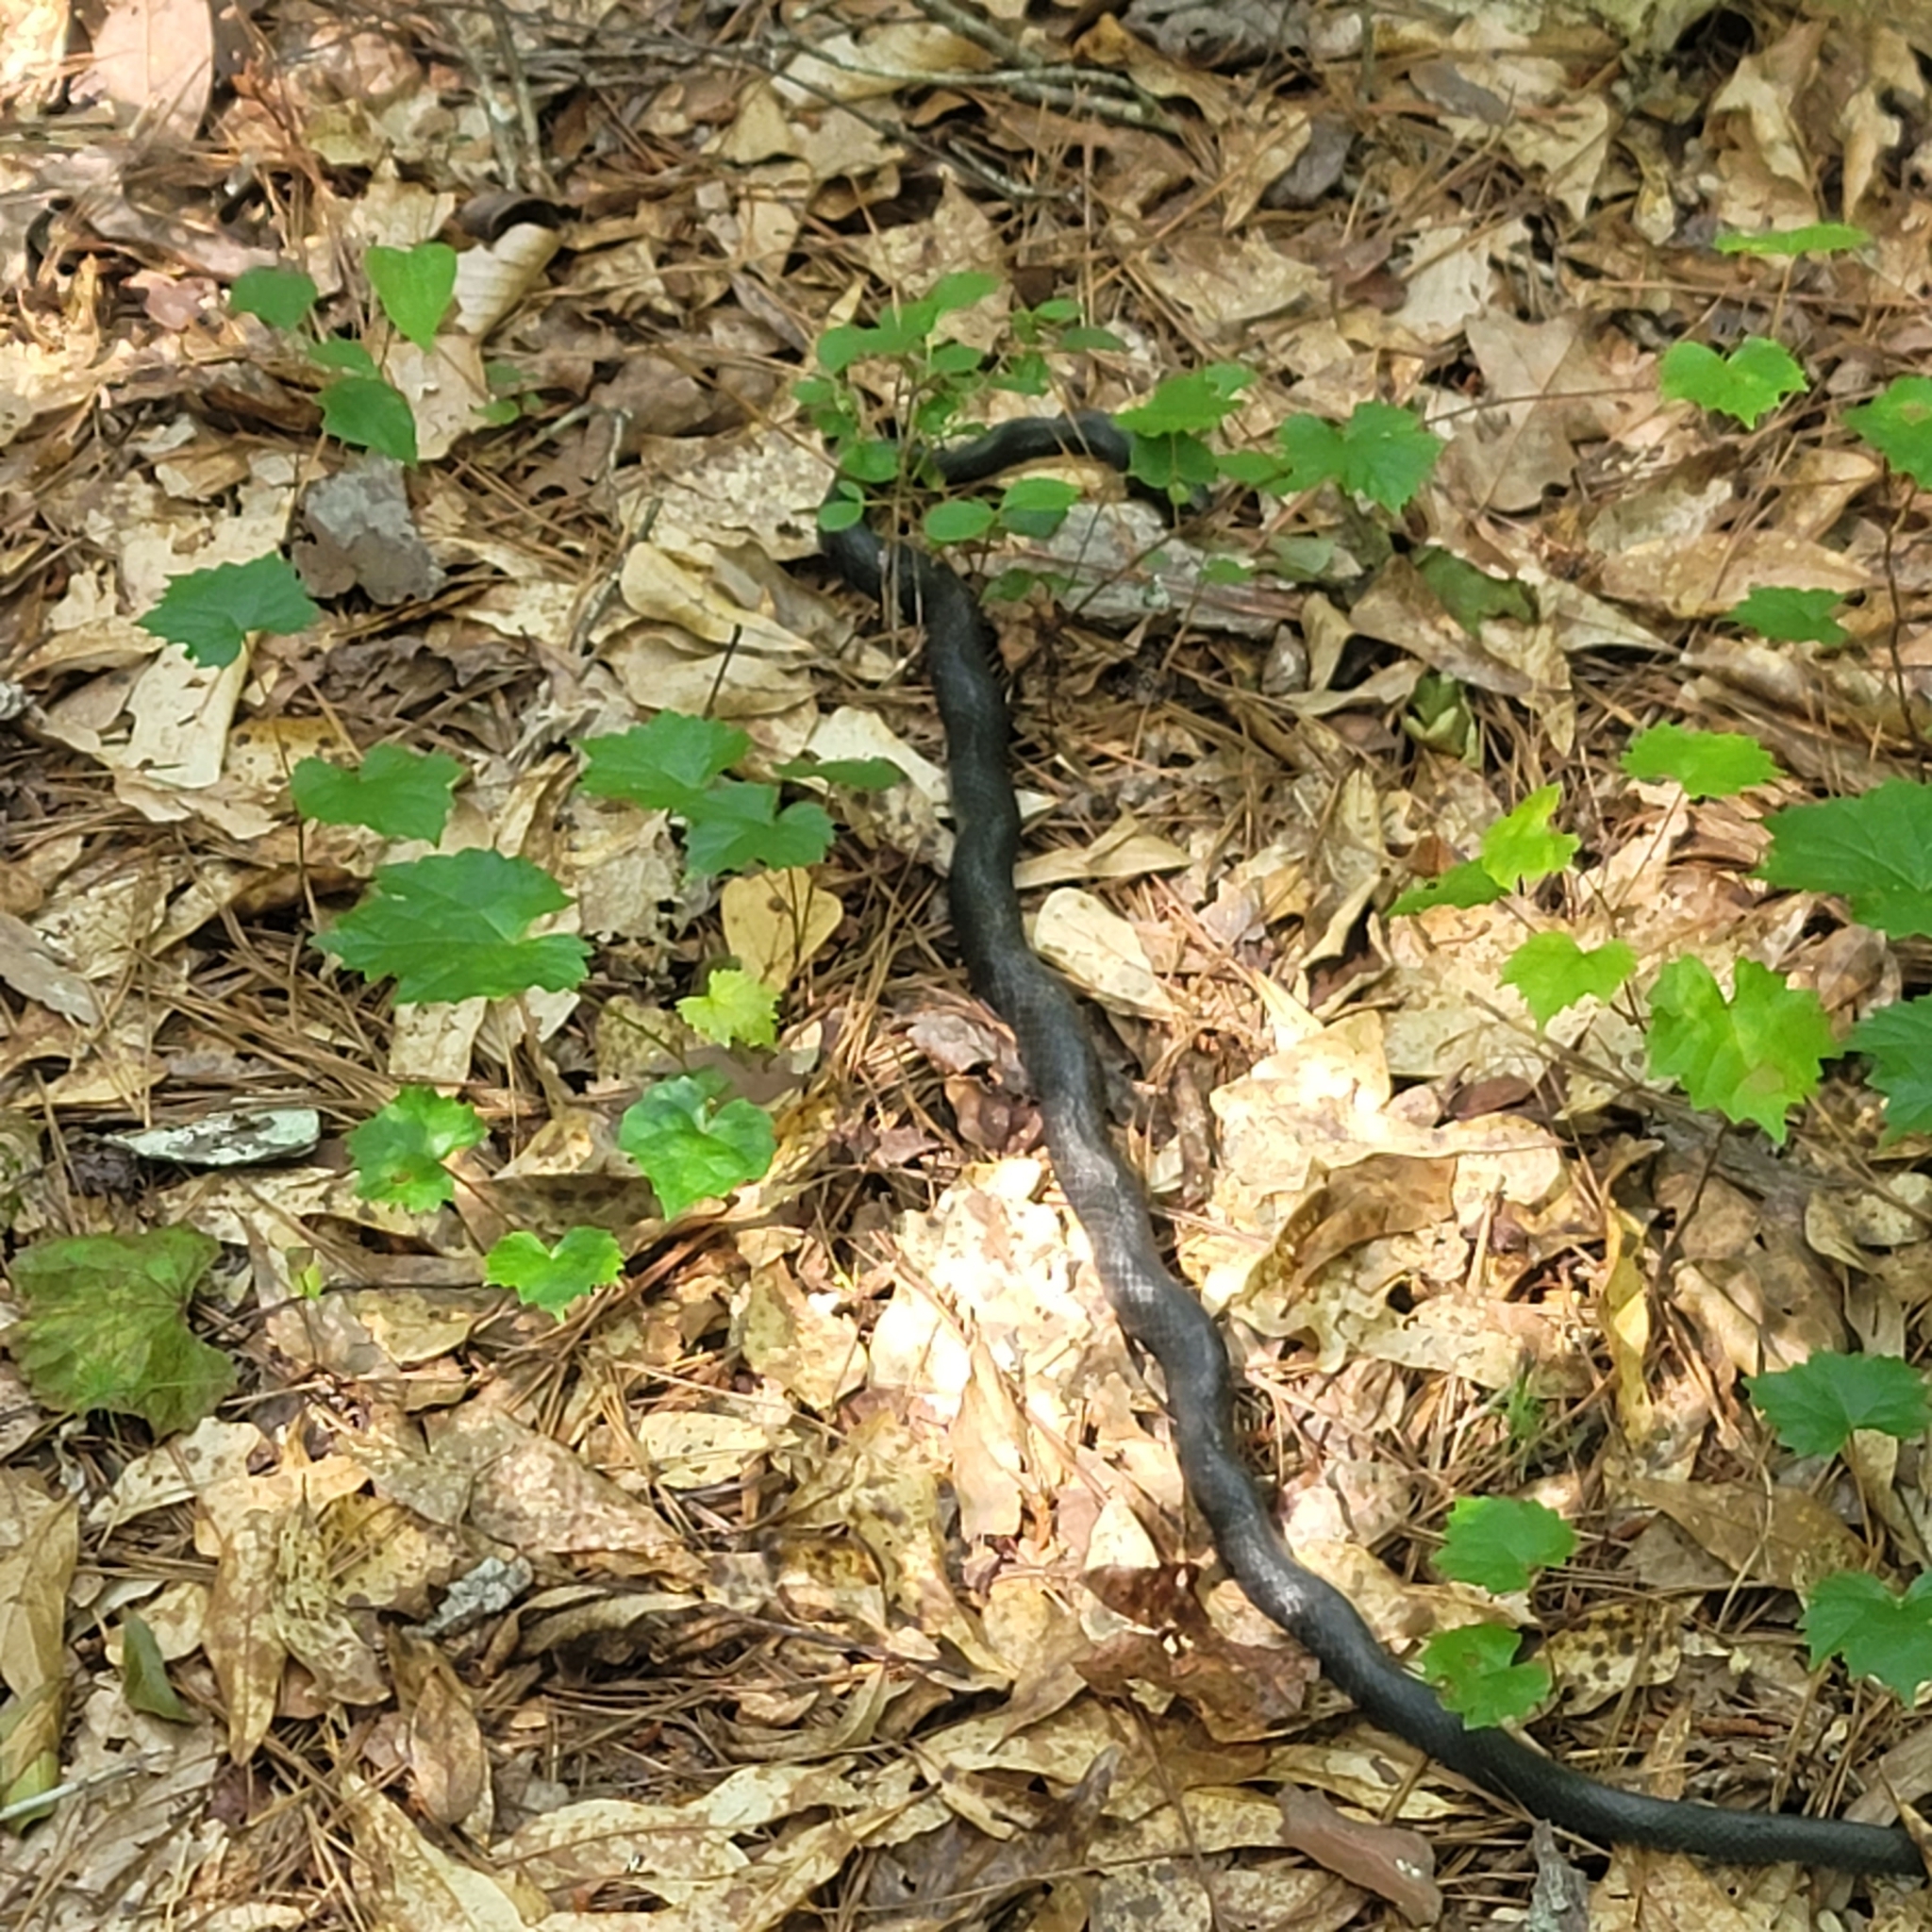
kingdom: Animalia
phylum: Chordata
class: Squamata
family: Colubridae
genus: Coluber
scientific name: Coluber constrictor
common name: Eastern racer
